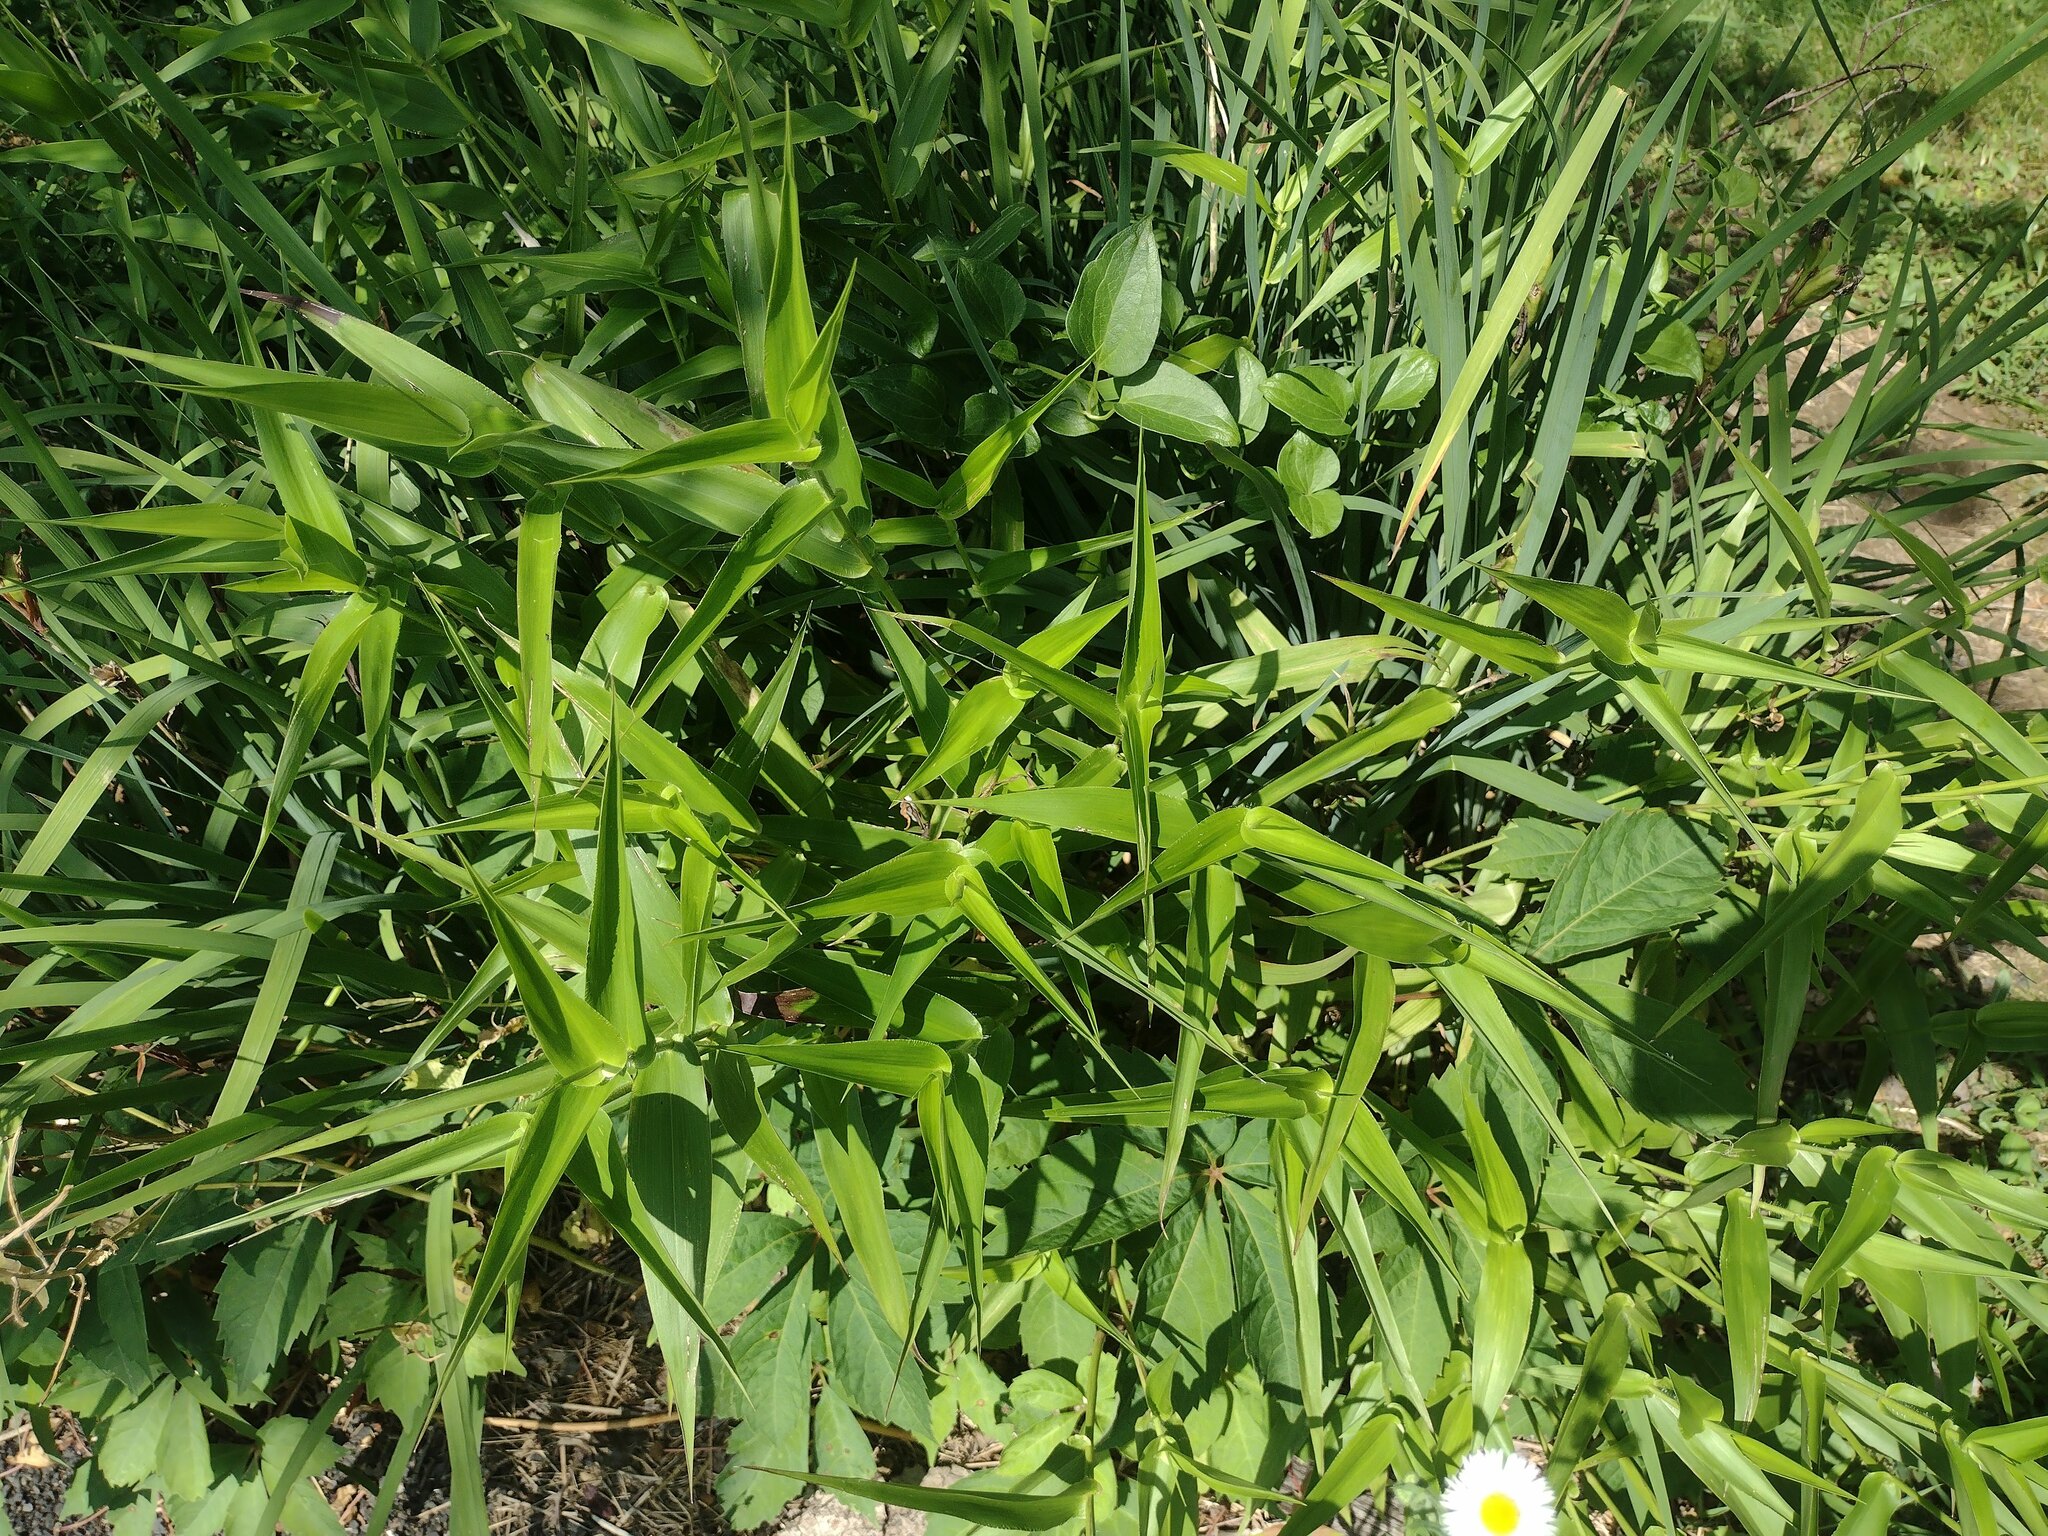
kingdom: Plantae
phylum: Tracheophyta
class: Liliopsida
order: Poales
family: Poaceae
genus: Dichanthelium
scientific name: Dichanthelium clandestinum
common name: Deer-tongue grass
